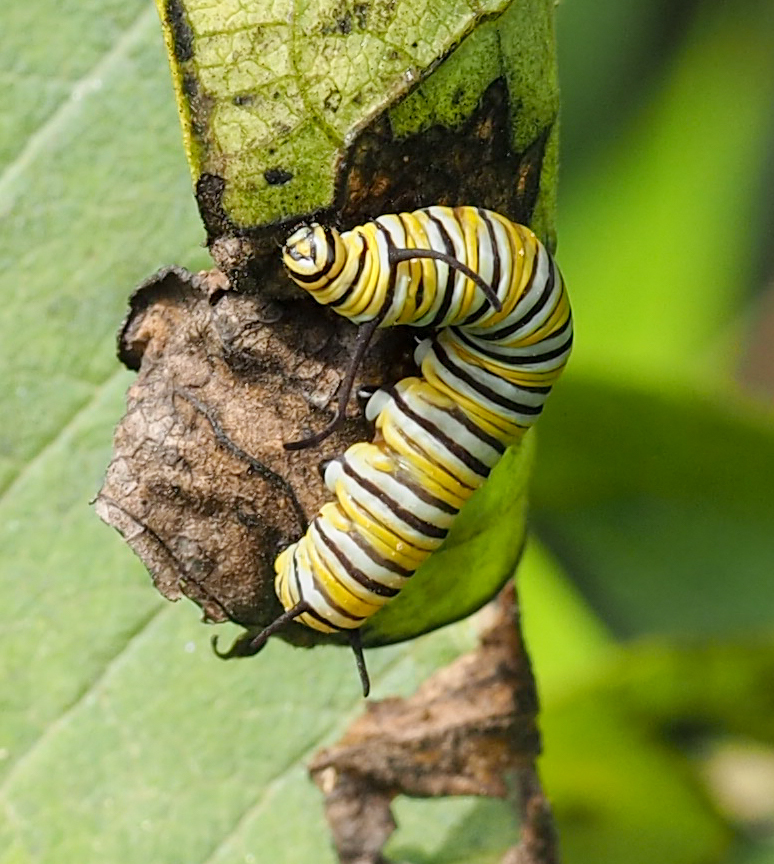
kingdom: Animalia
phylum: Arthropoda
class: Insecta
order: Lepidoptera
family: Nymphalidae
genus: Danaus
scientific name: Danaus plexippus
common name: Monarch
